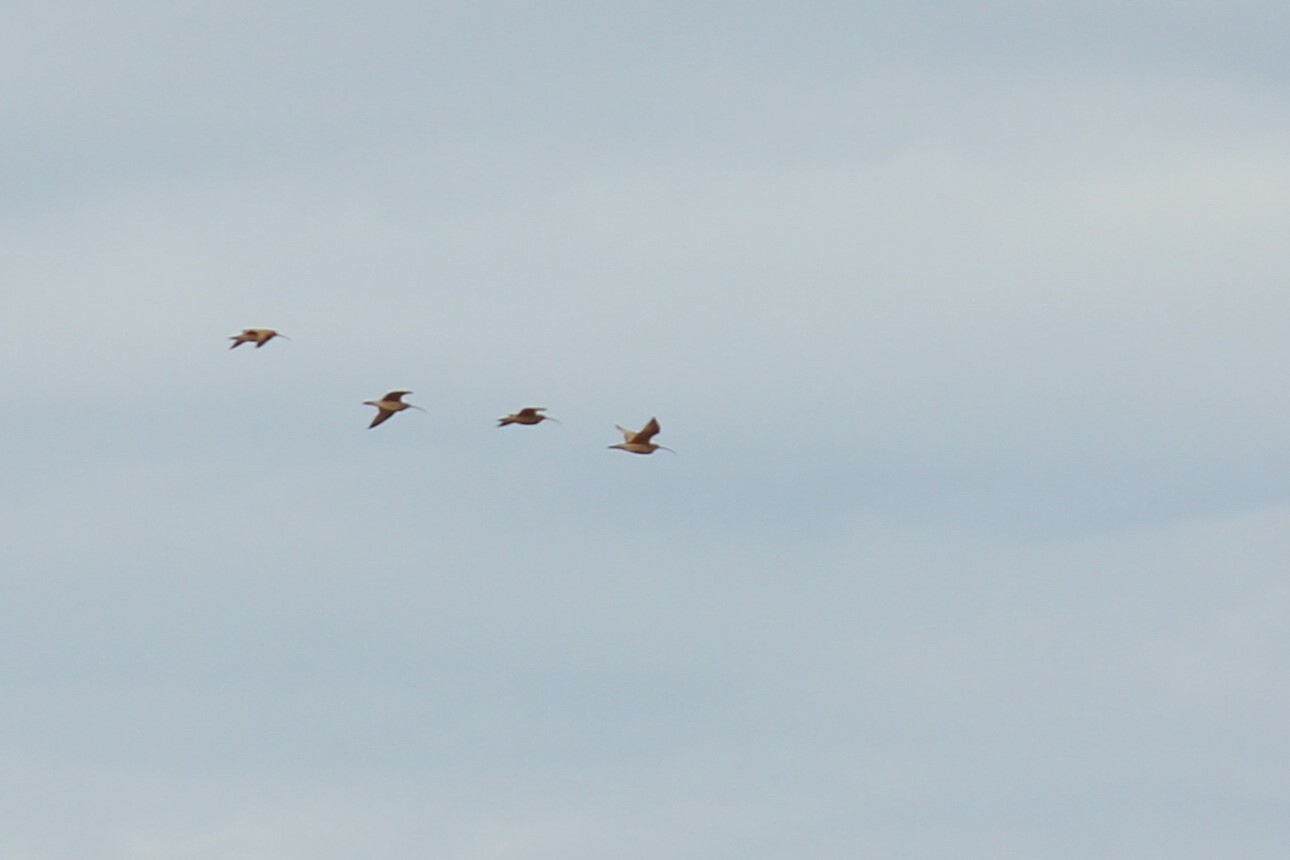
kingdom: Animalia
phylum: Chordata
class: Aves
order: Charadriiformes
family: Scolopacidae
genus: Numenius
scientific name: Numenius americanus
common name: Long-billed curlew
